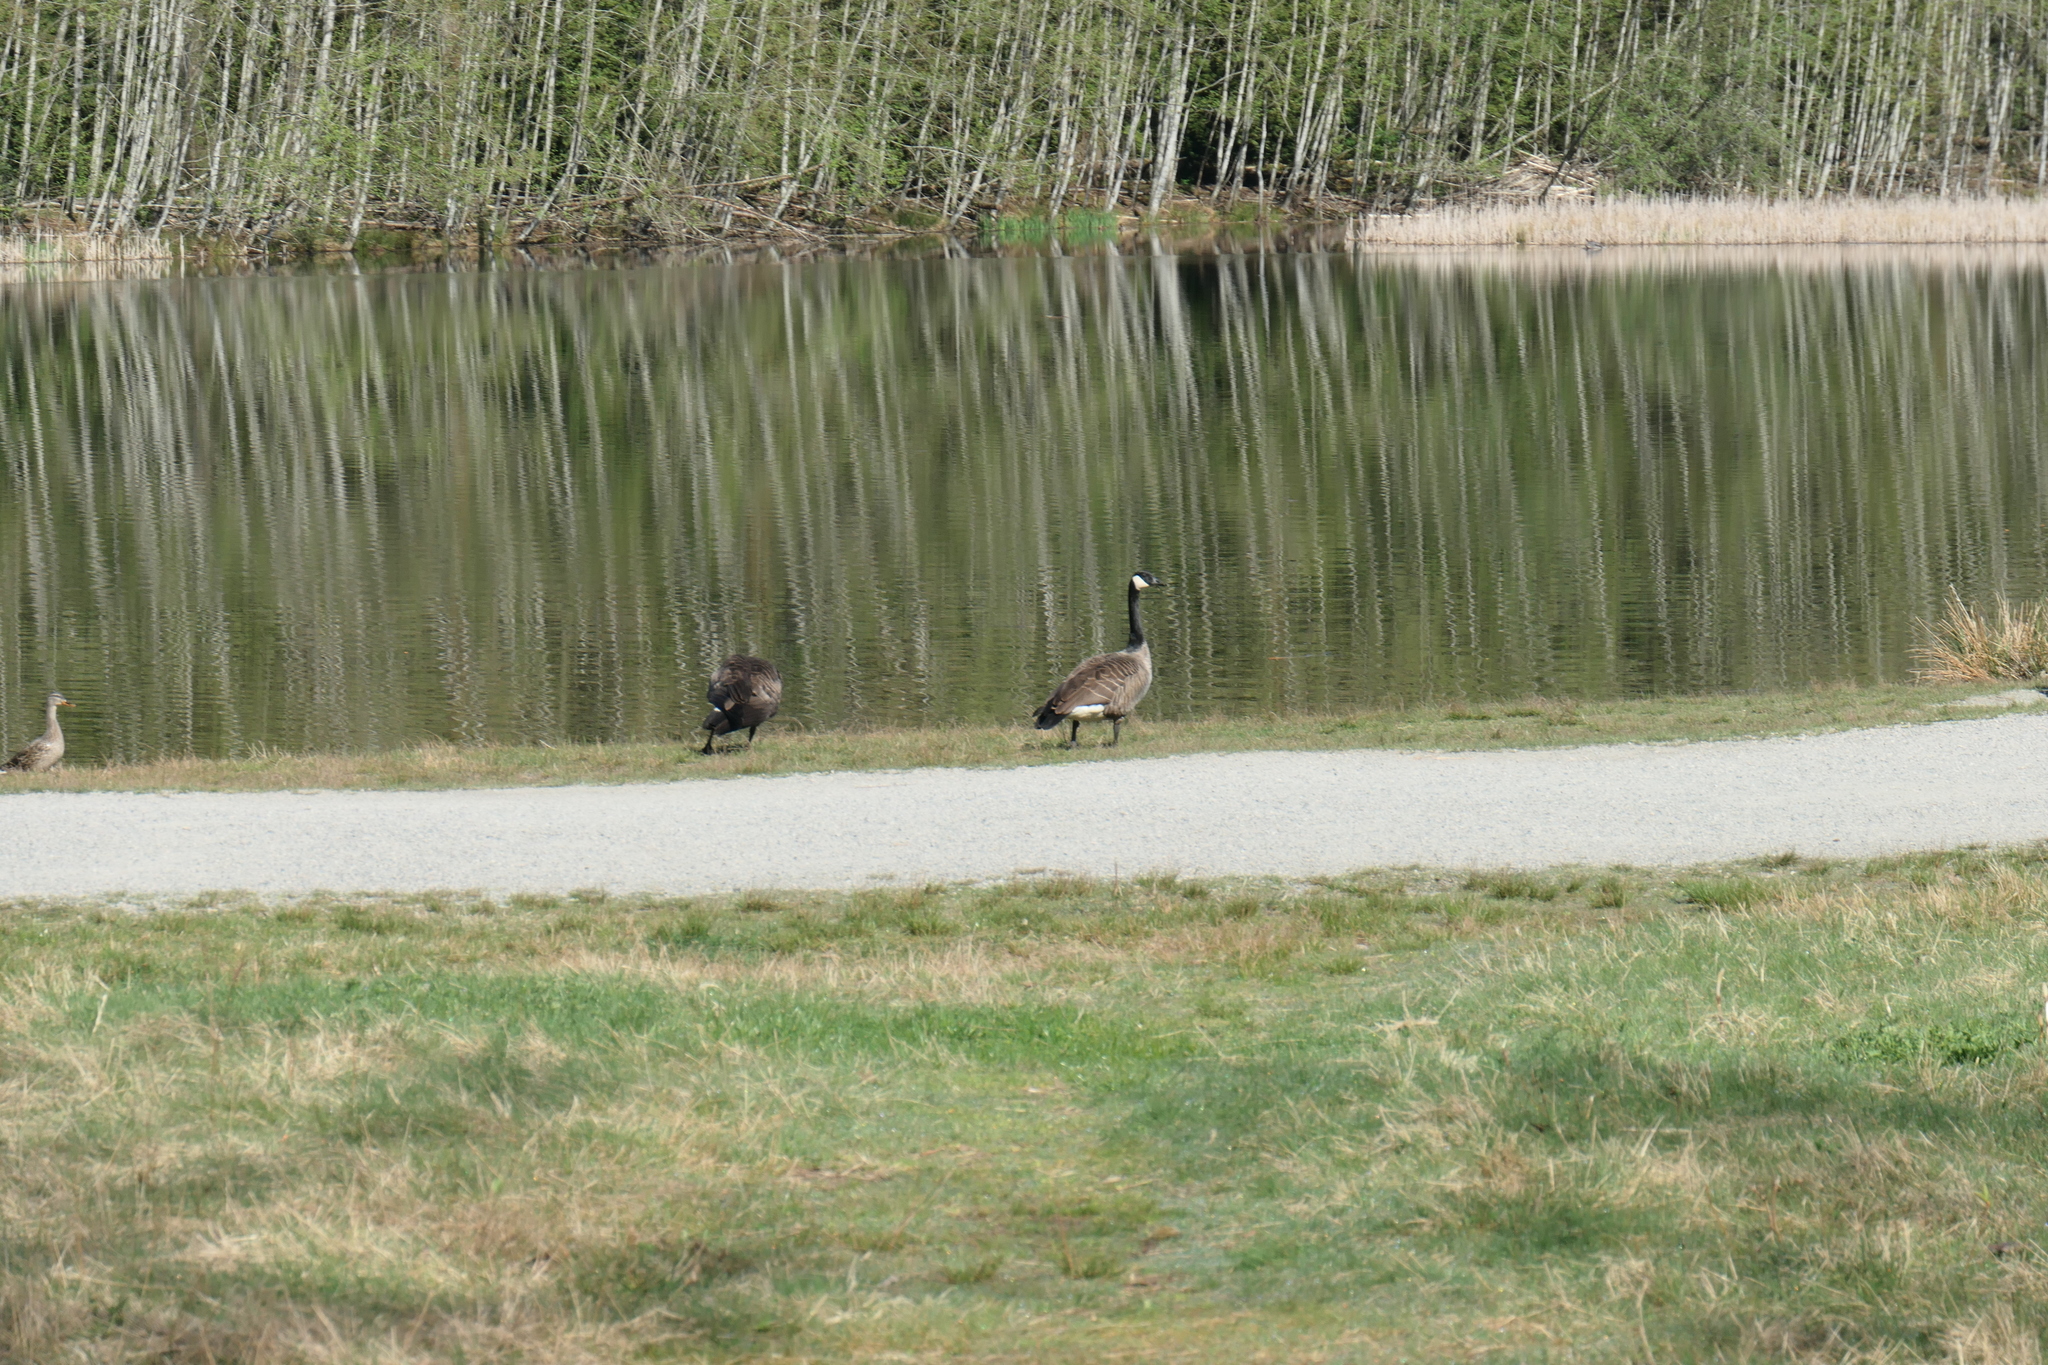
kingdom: Animalia
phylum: Chordata
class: Aves
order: Anseriformes
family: Anatidae
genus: Branta
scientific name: Branta canadensis
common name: Canada goose
